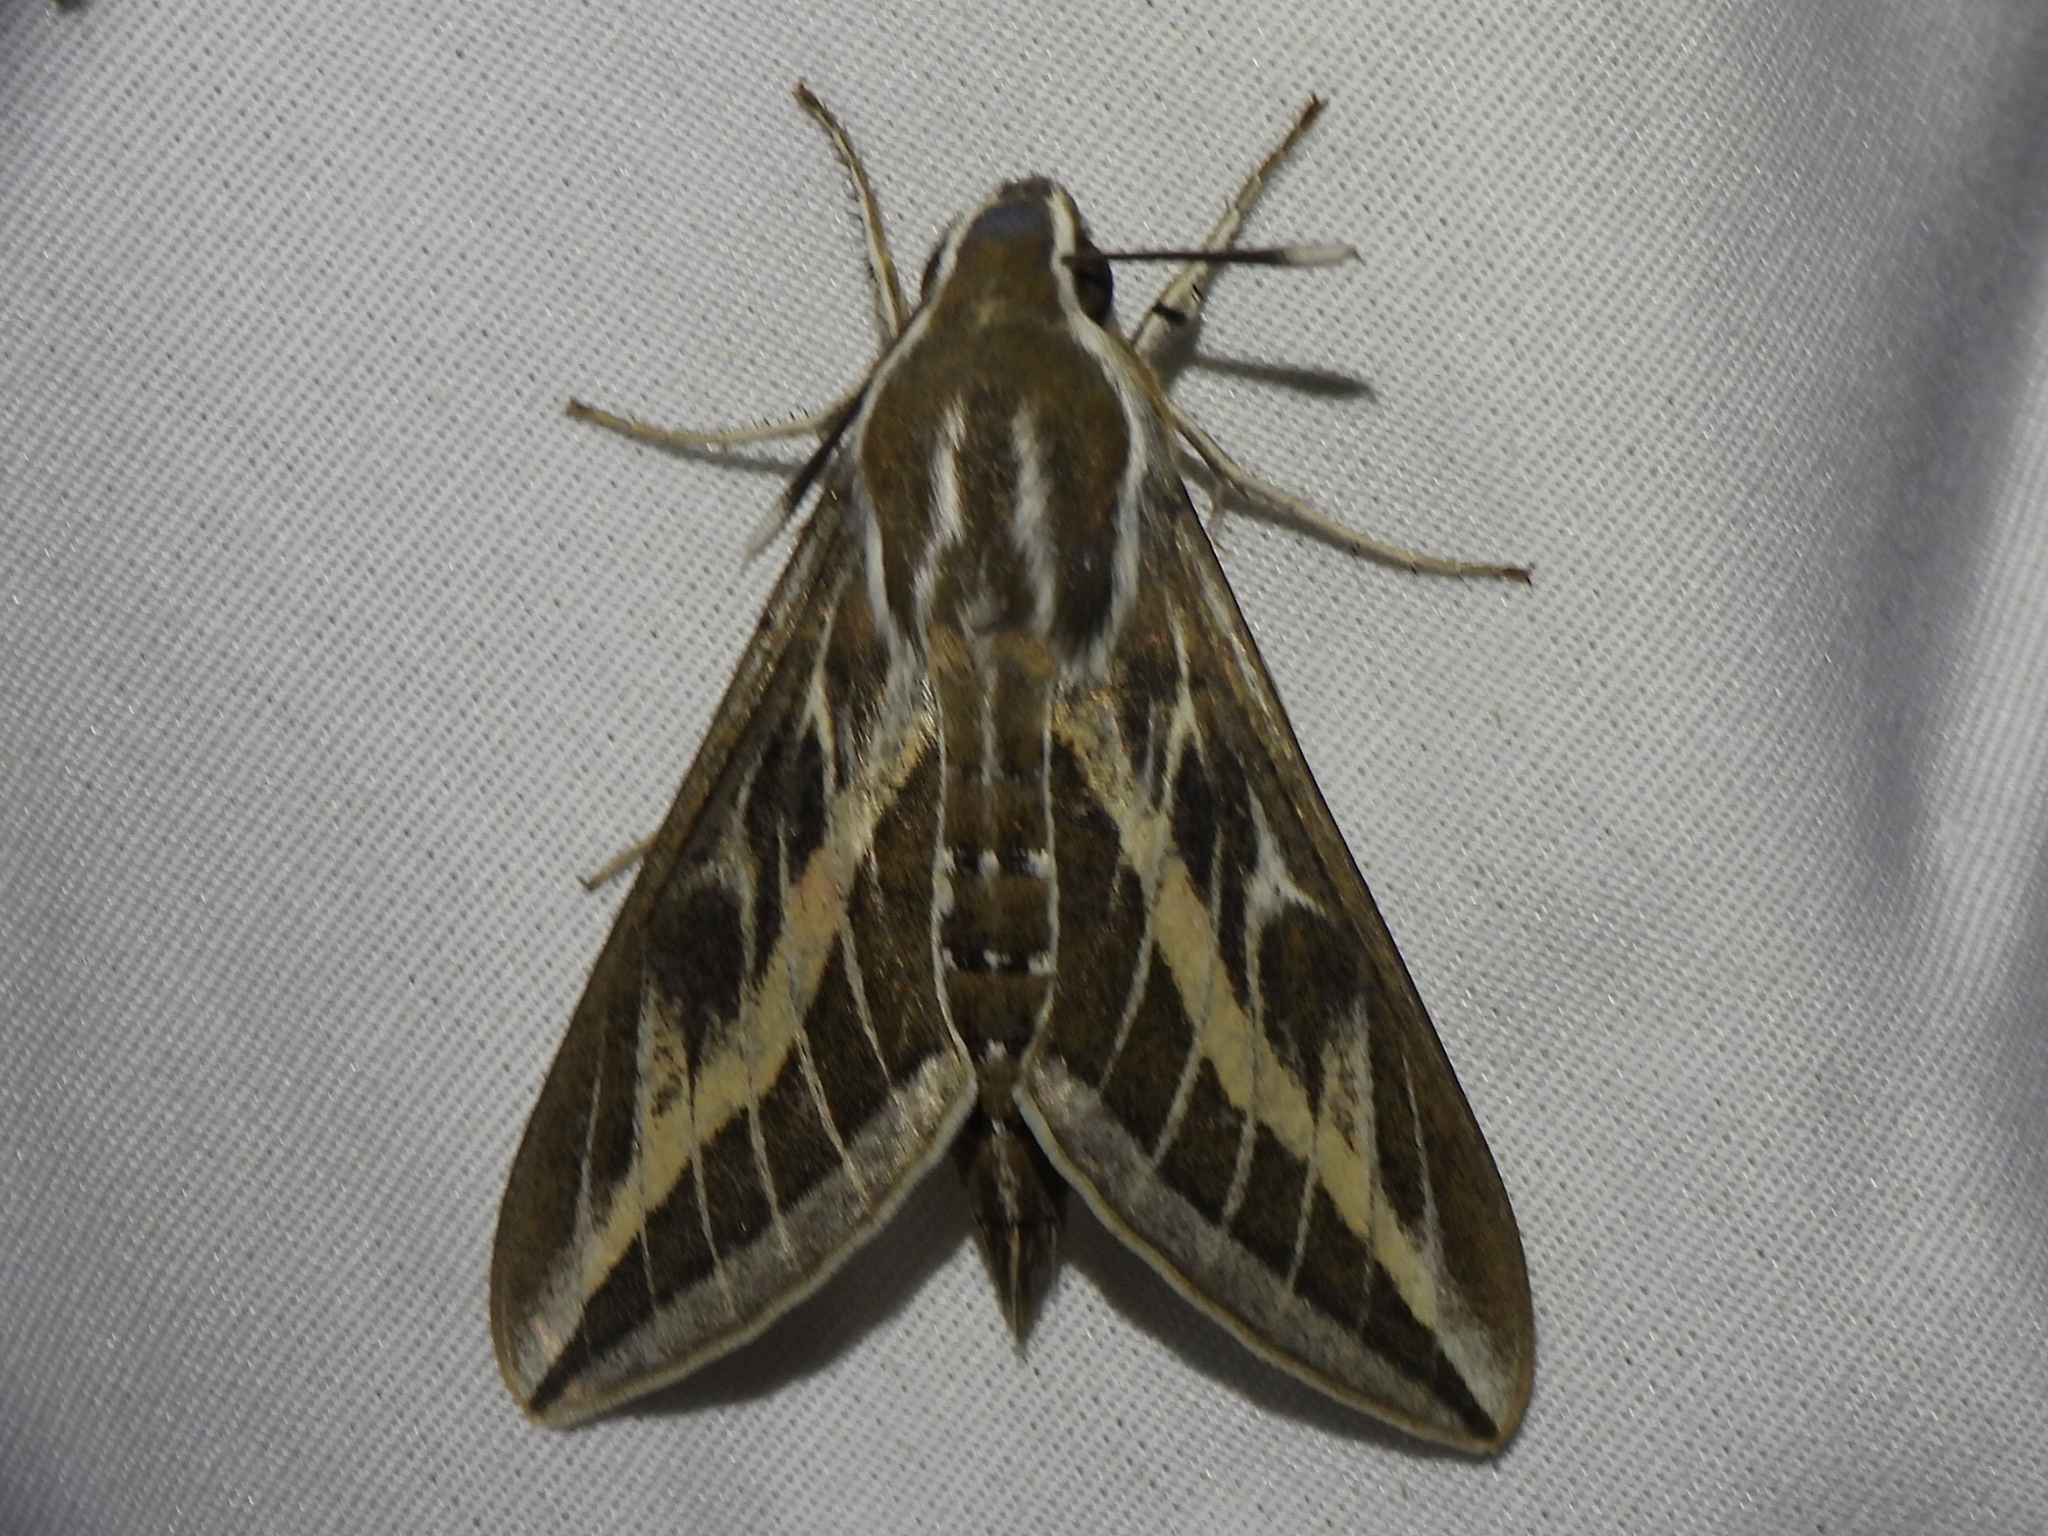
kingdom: Animalia
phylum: Arthropoda
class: Insecta
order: Lepidoptera
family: Sphingidae
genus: Hyles
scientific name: Hyles livornica
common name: Striped hawk-moth
